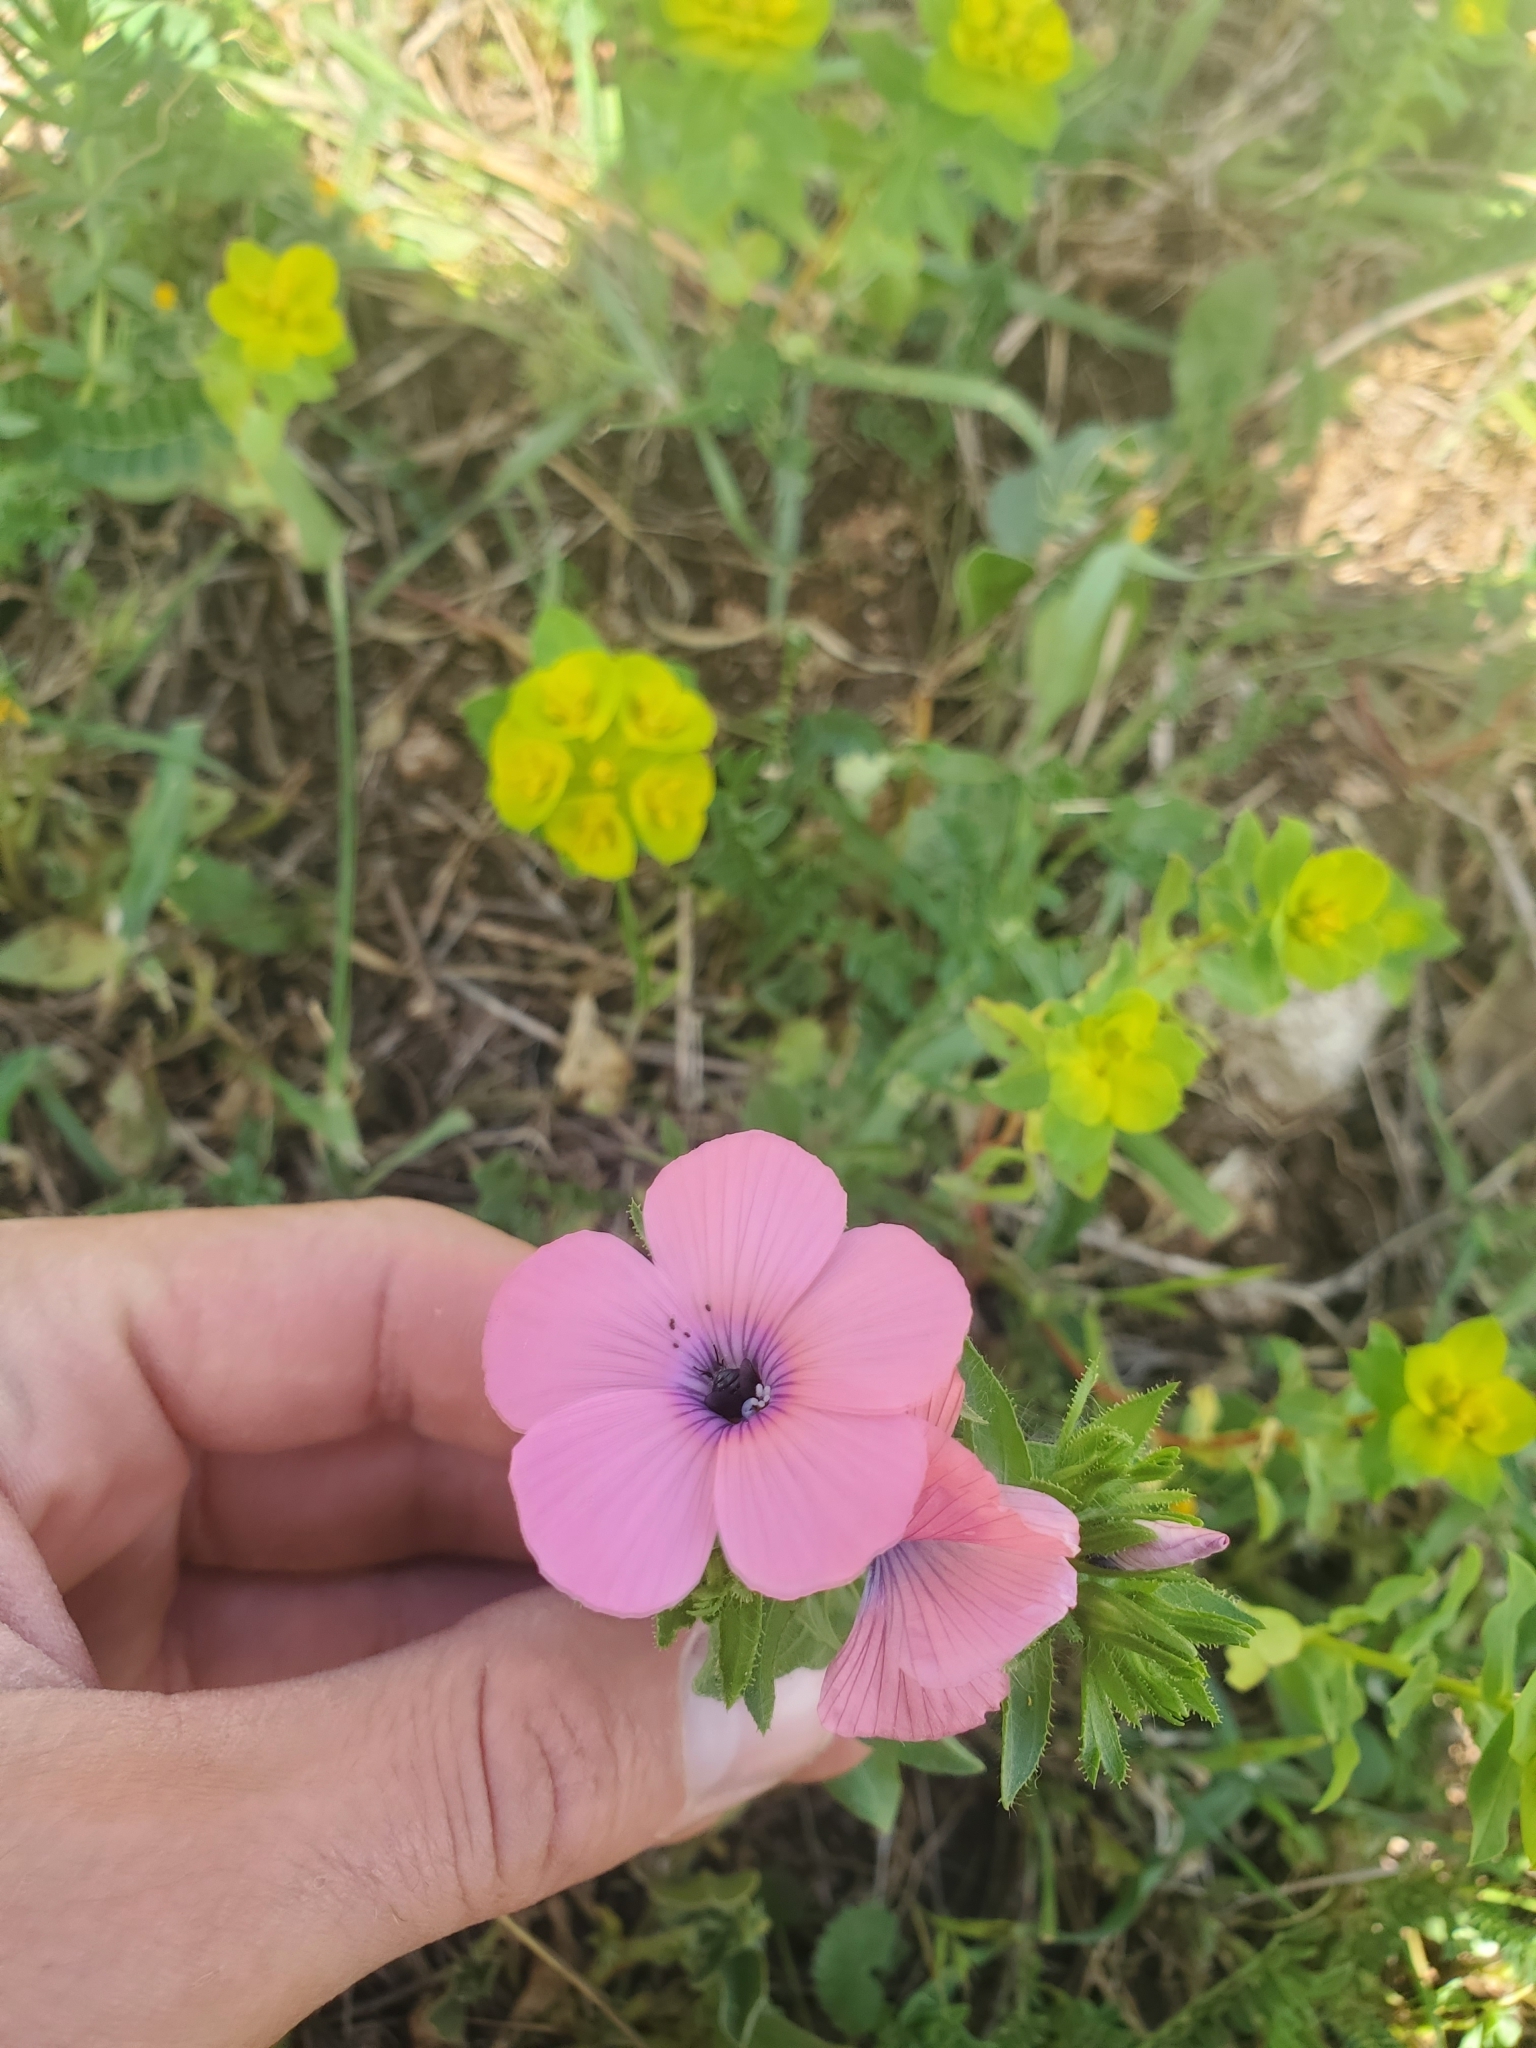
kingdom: Plantae
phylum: Tracheophyta
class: Magnoliopsida
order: Malpighiales
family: Linaceae
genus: Linum
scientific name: Linum pubescens
